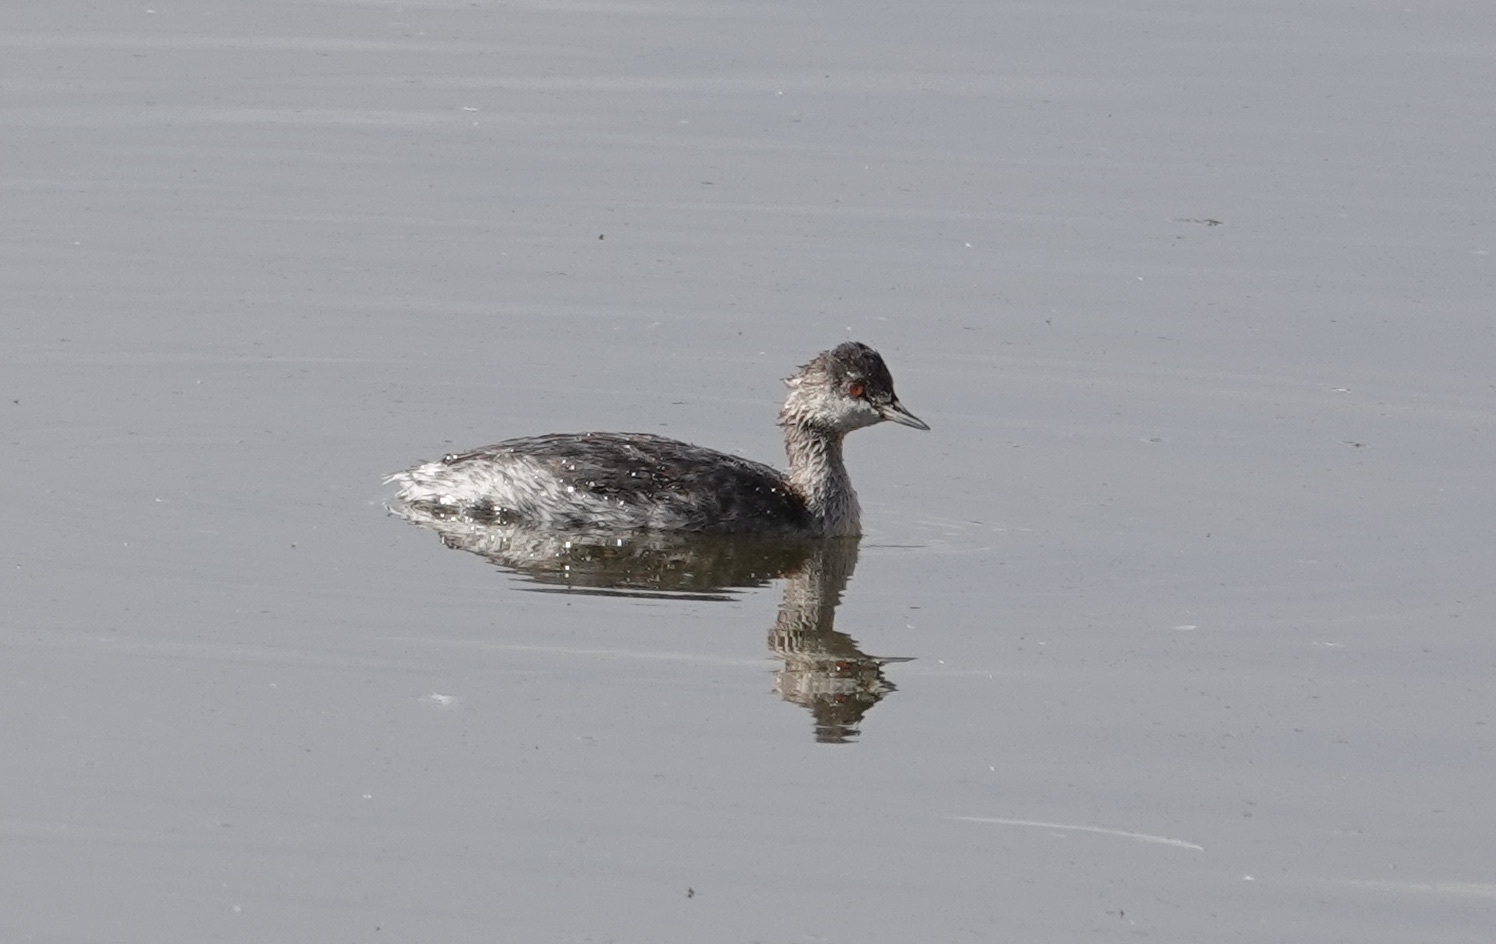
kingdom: Animalia
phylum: Chordata
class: Aves
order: Podicipediformes
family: Podicipedidae
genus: Podiceps
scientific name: Podiceps nigricollis
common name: Black-necked grebe
